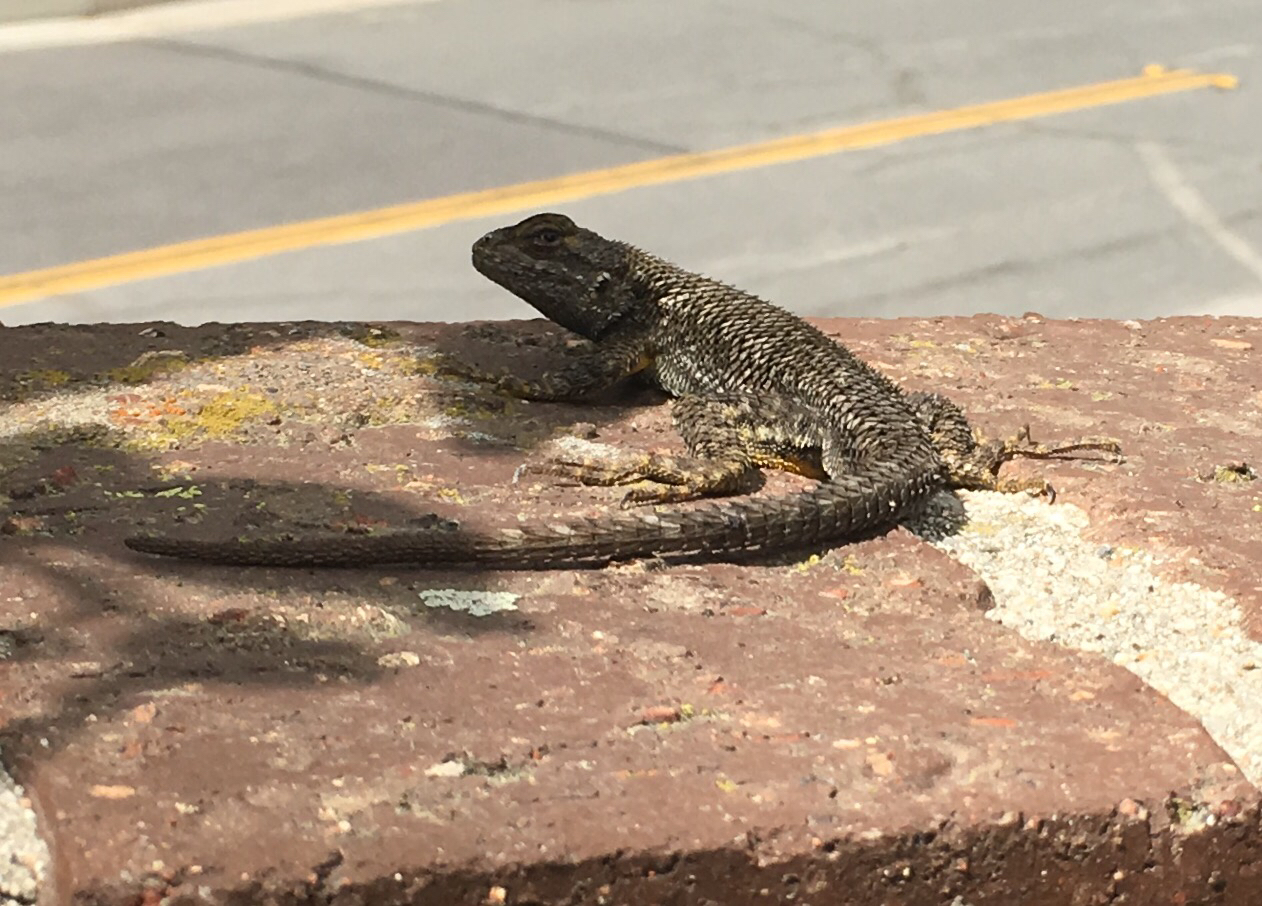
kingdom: Animalia
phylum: Chordata
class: Squamata
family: Phrynosomatidae
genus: Sceloporus
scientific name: Sceloporus occidentalis
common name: Western fence lizard
